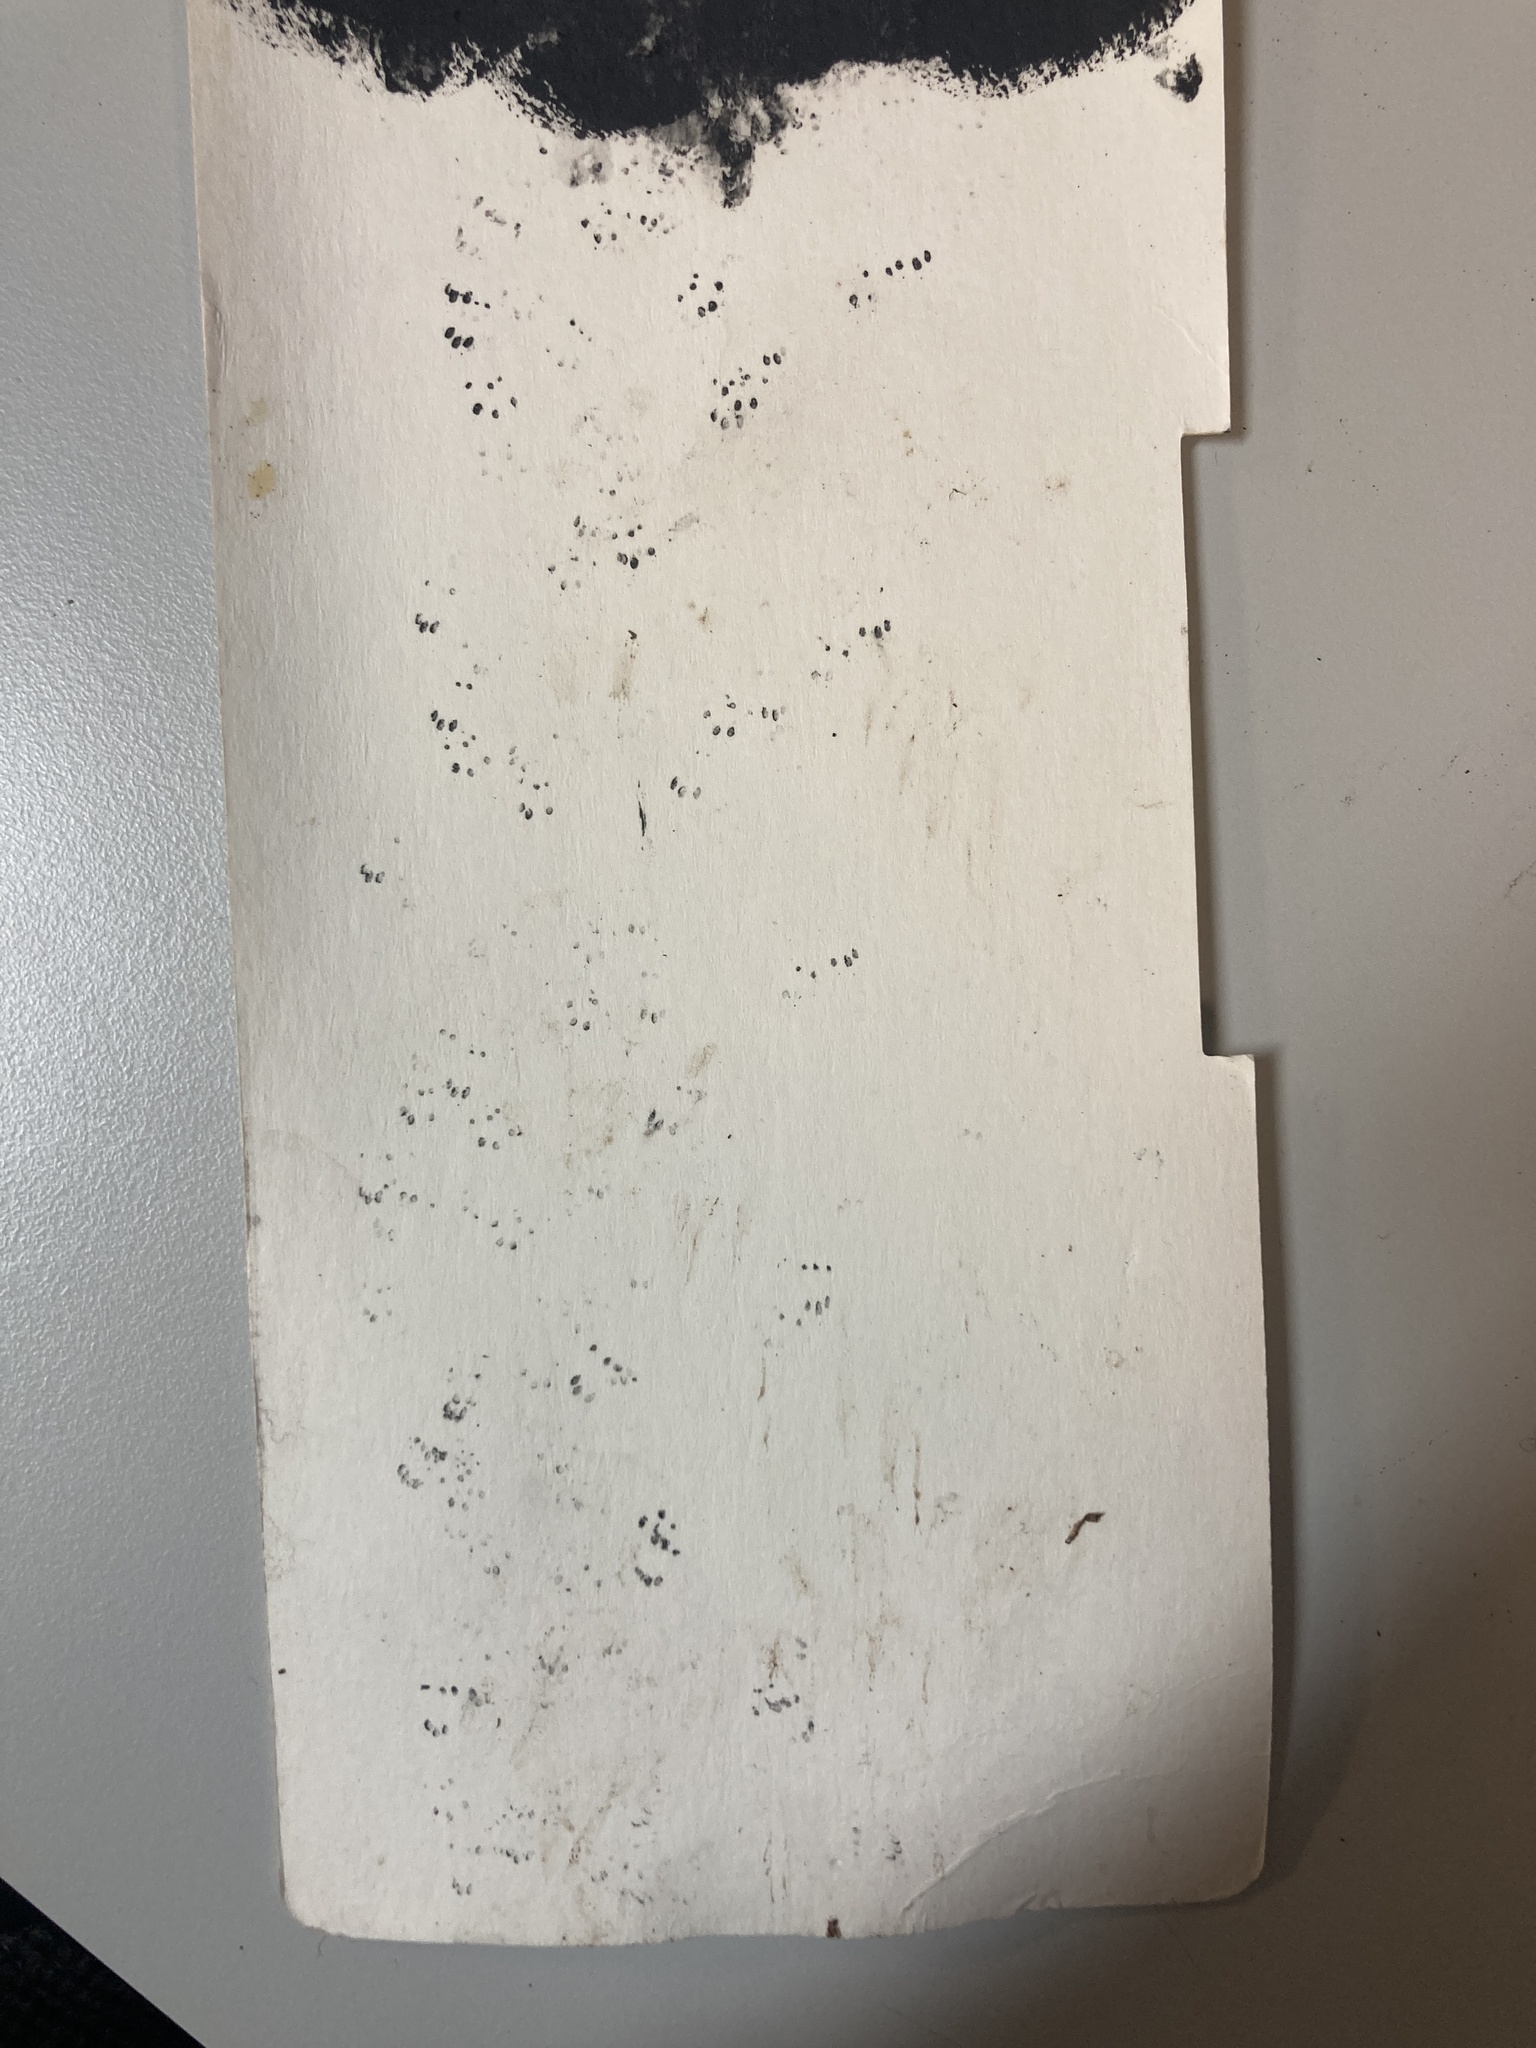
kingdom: Animalia
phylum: Chordata
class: Mammalia
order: Rodentia
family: Muridae
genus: Mus
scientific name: Mus musculus
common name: House mouse
